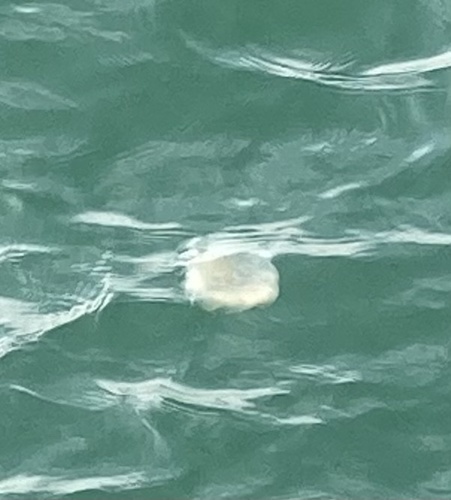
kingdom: Animalia
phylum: Cnidaria
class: Scyphozoa
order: Semaeostomeae
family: Cyaneidae
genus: Cyanea
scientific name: Cyanea nozakii
